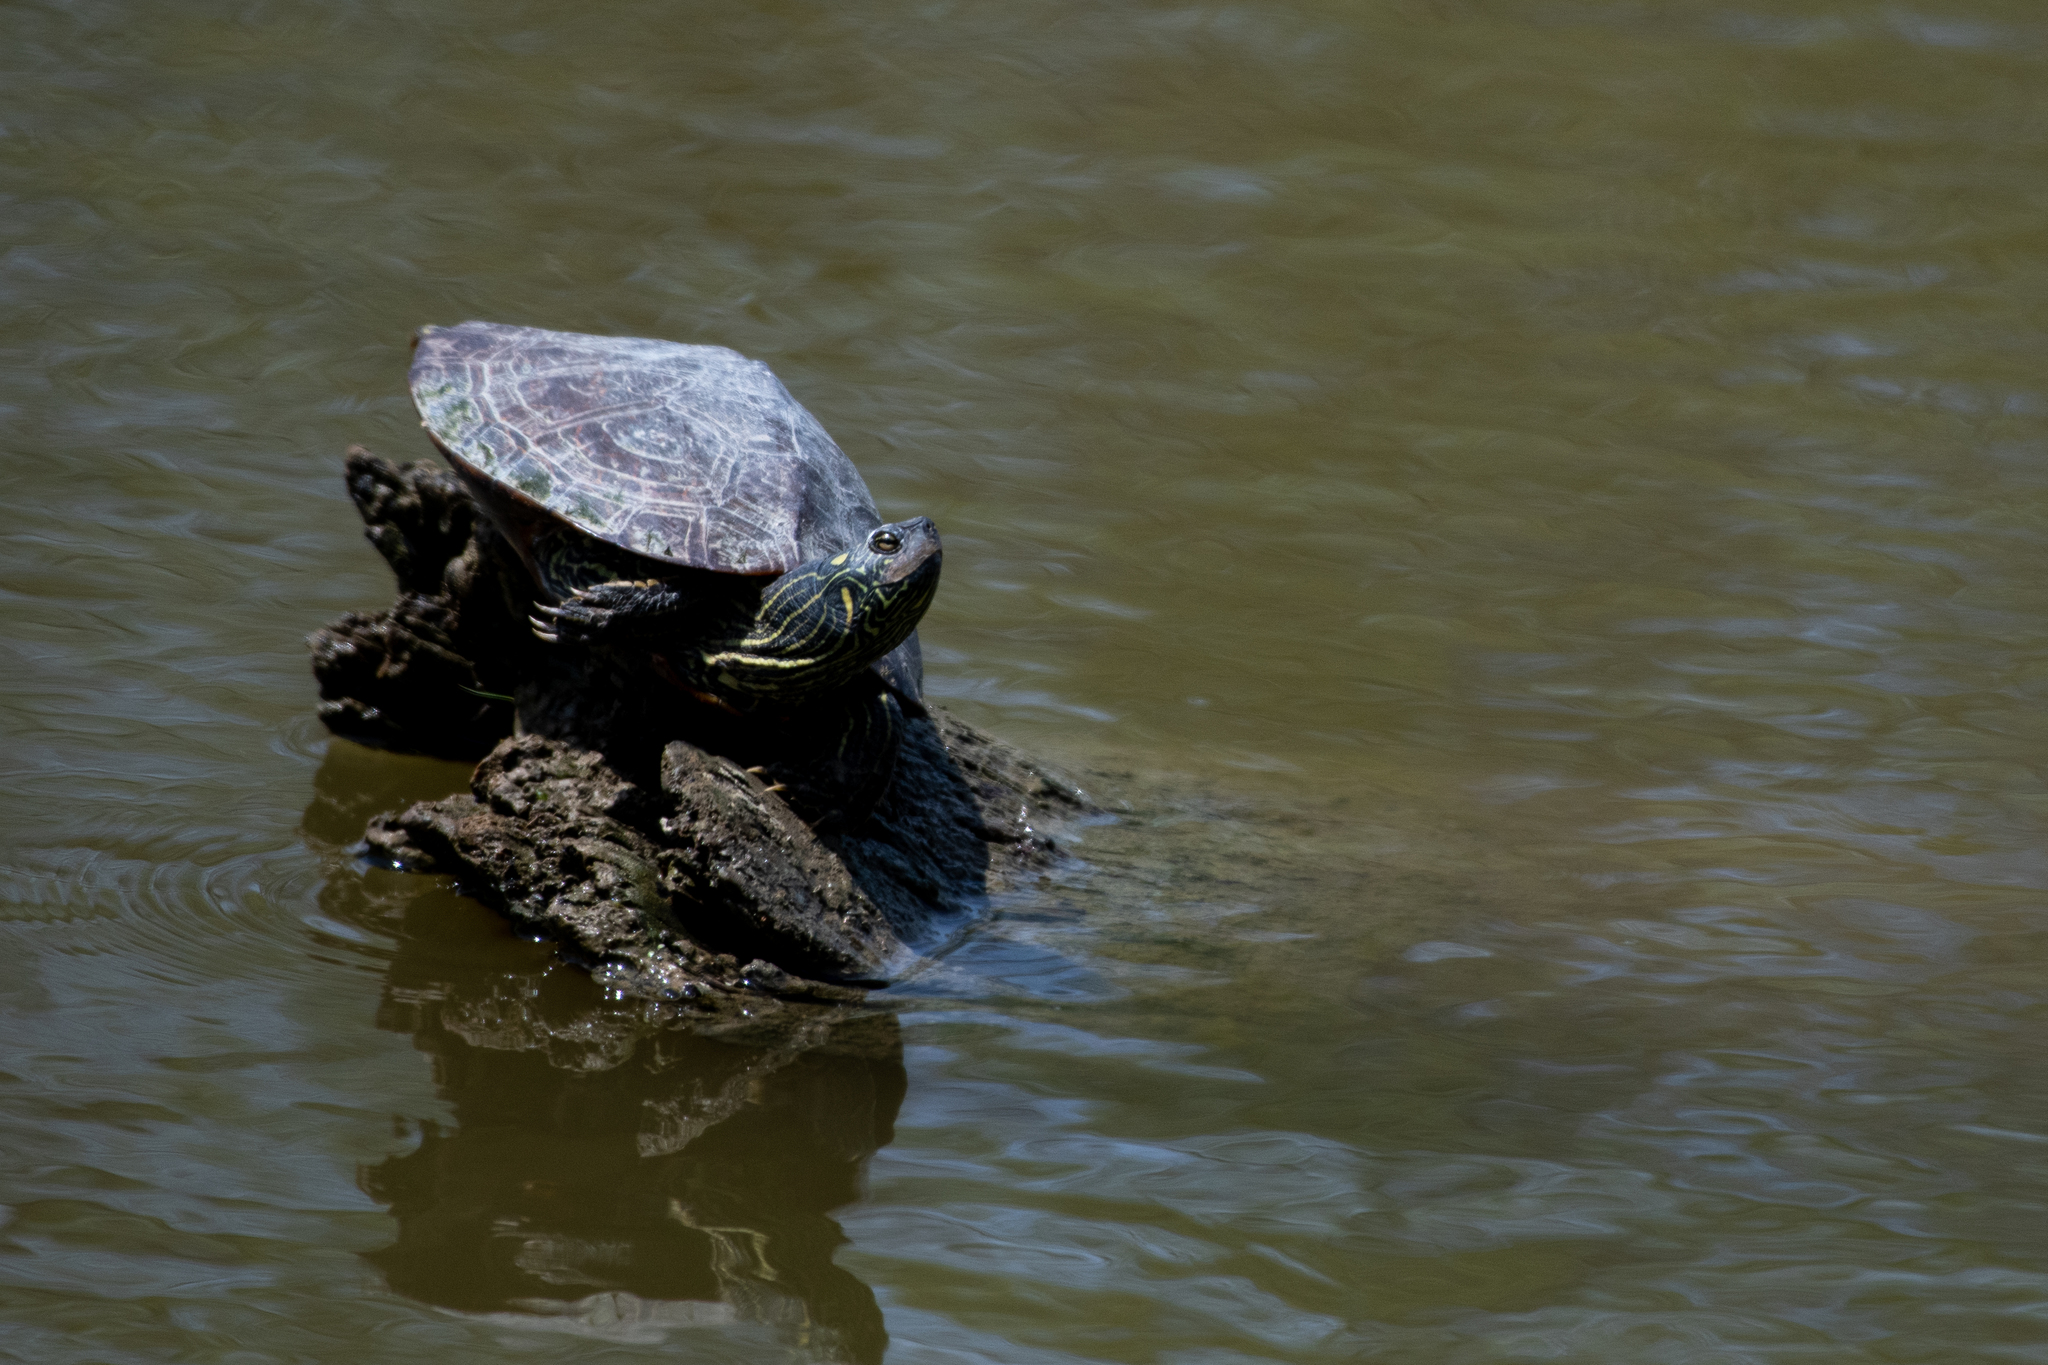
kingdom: Animalia
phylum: Chordata
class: Testudines
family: Emydidae
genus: Graptemys
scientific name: Graptemys geographica
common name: Common map turtle
